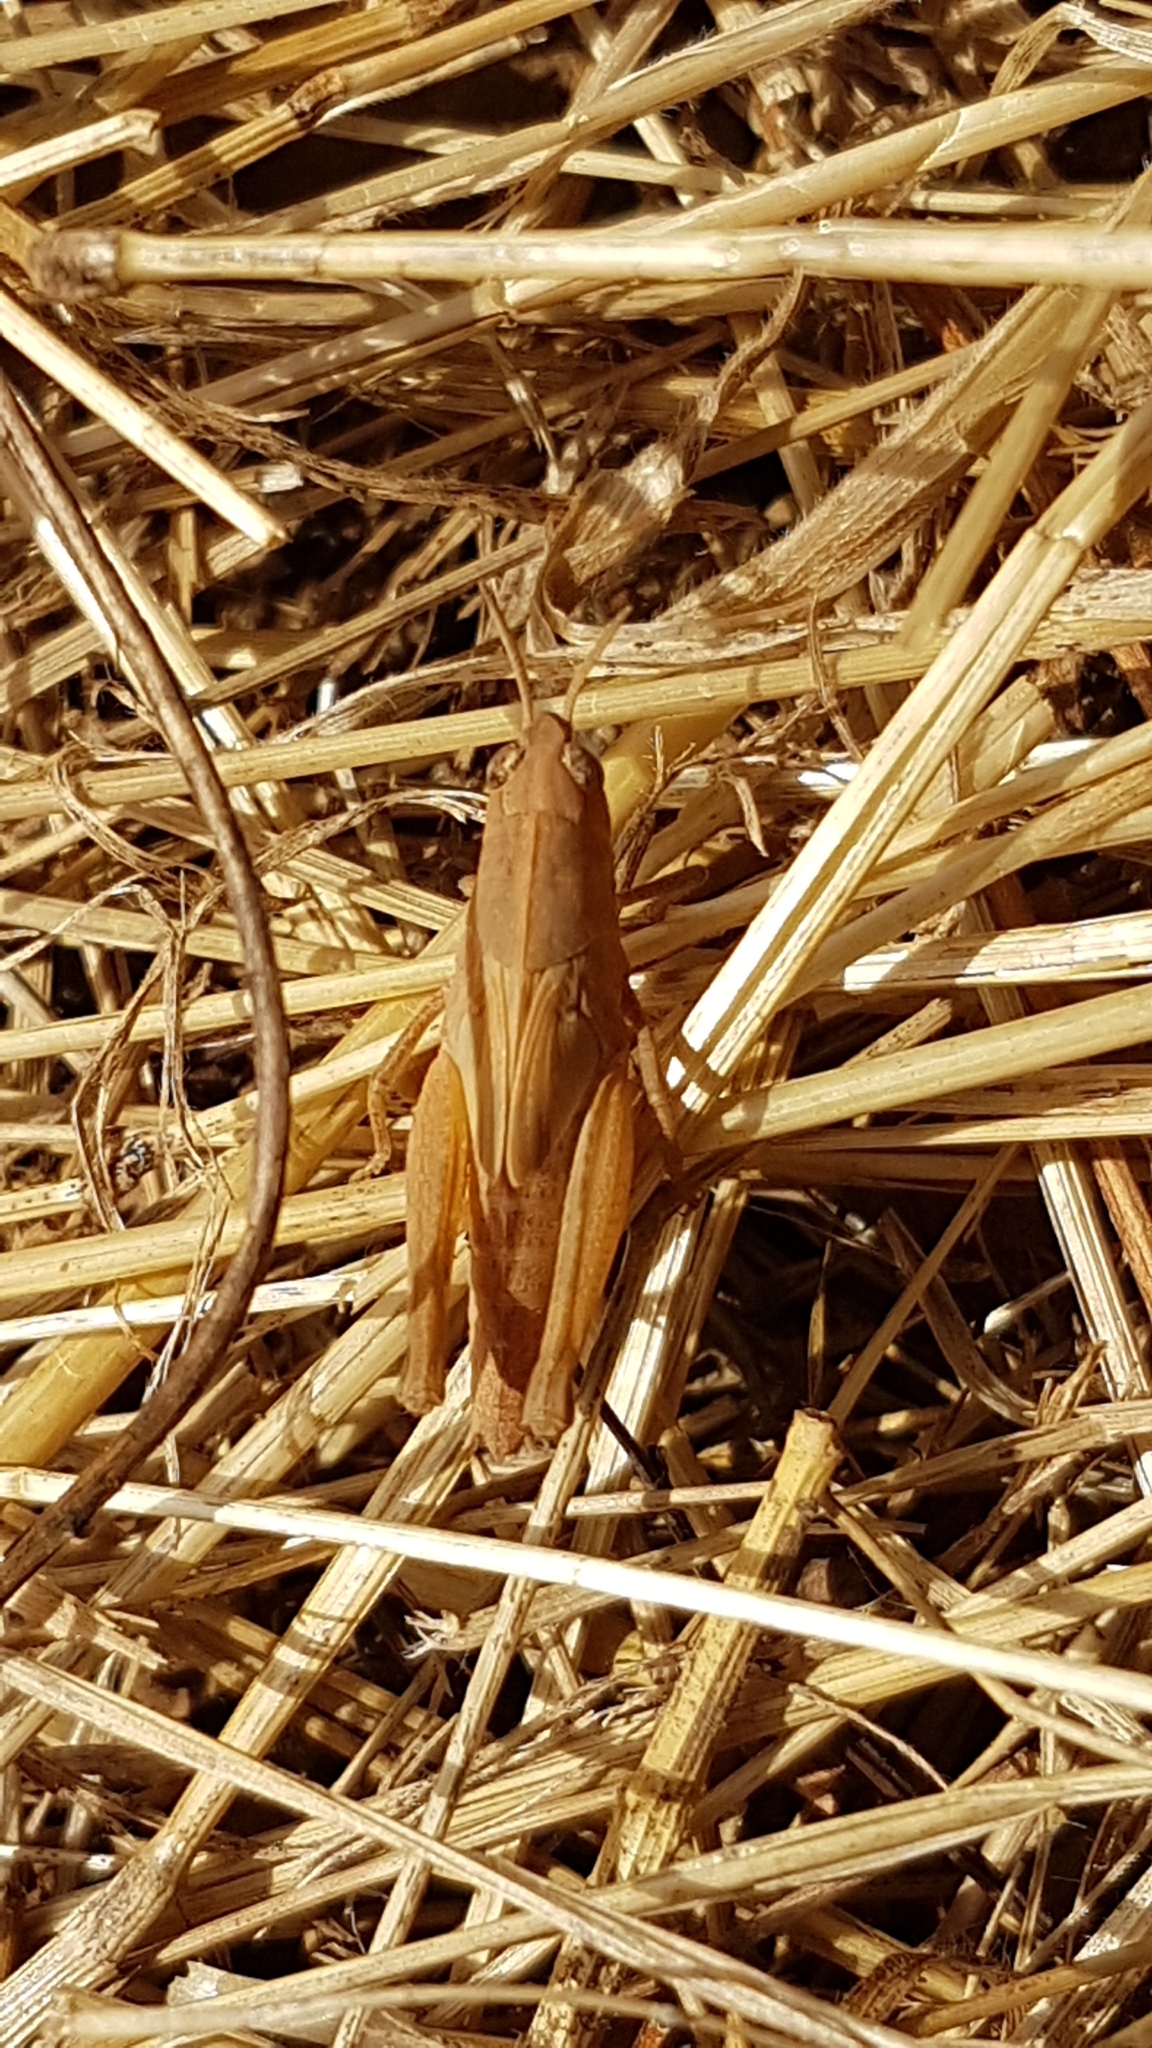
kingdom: Animalia
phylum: Arthropoda
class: Insecta
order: Orthoptera
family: Acrididae
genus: Aiolopus
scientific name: Aiolopus strepens
